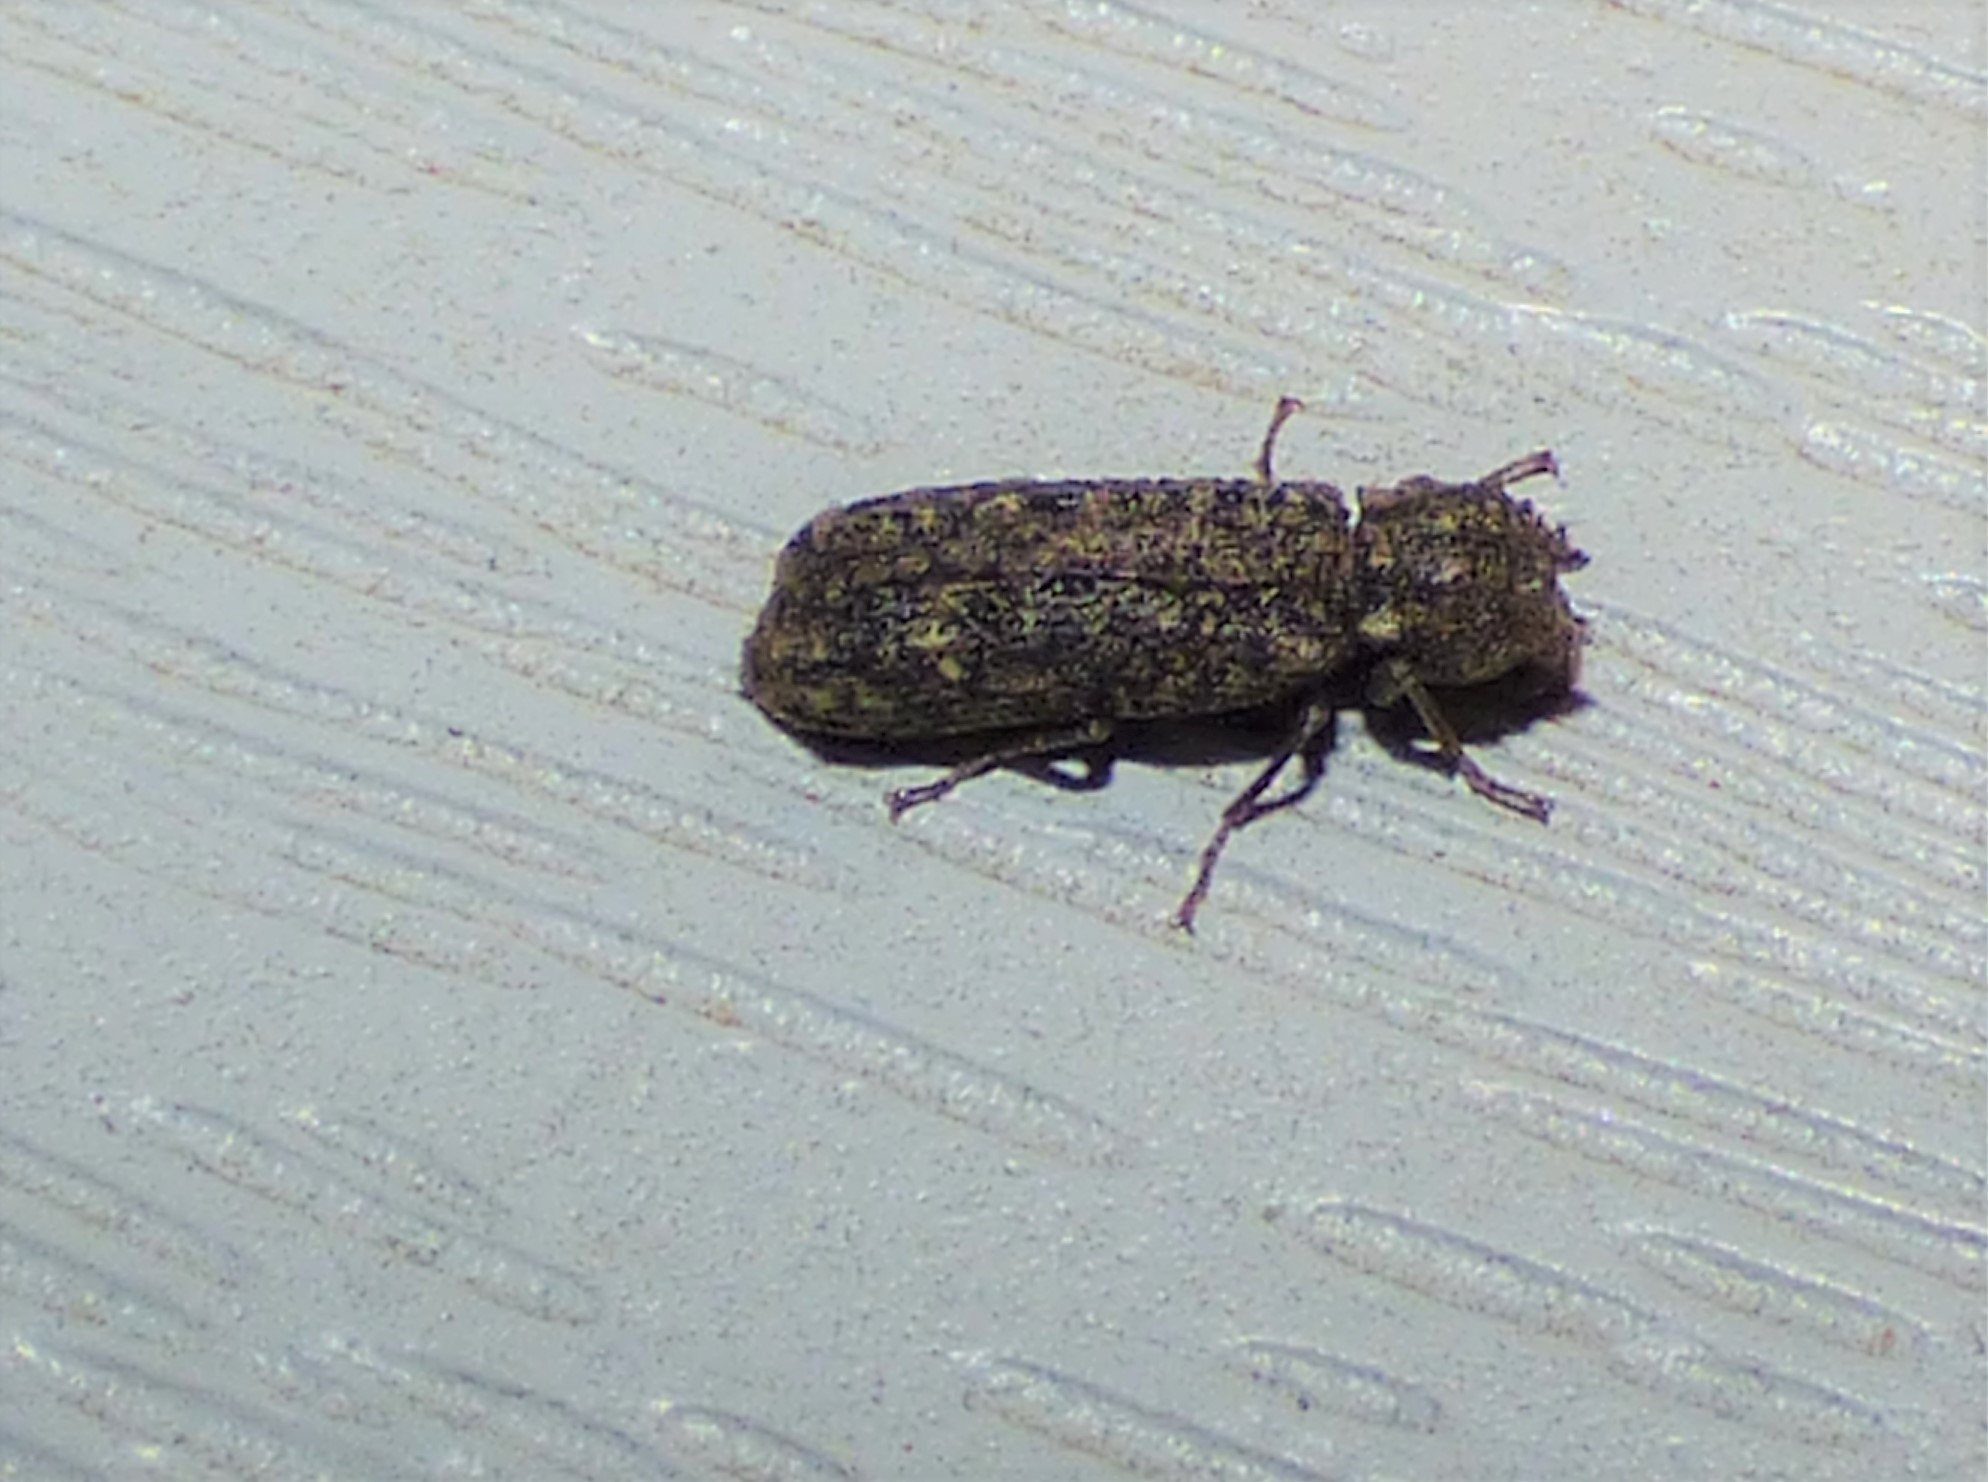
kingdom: Animalia
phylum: Arthropoda
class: Insecta
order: Coleoptera
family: Bostrichidae
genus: Lichenophanes
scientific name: Lichenophanes bicornis
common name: Two-horned powder-post beetle
